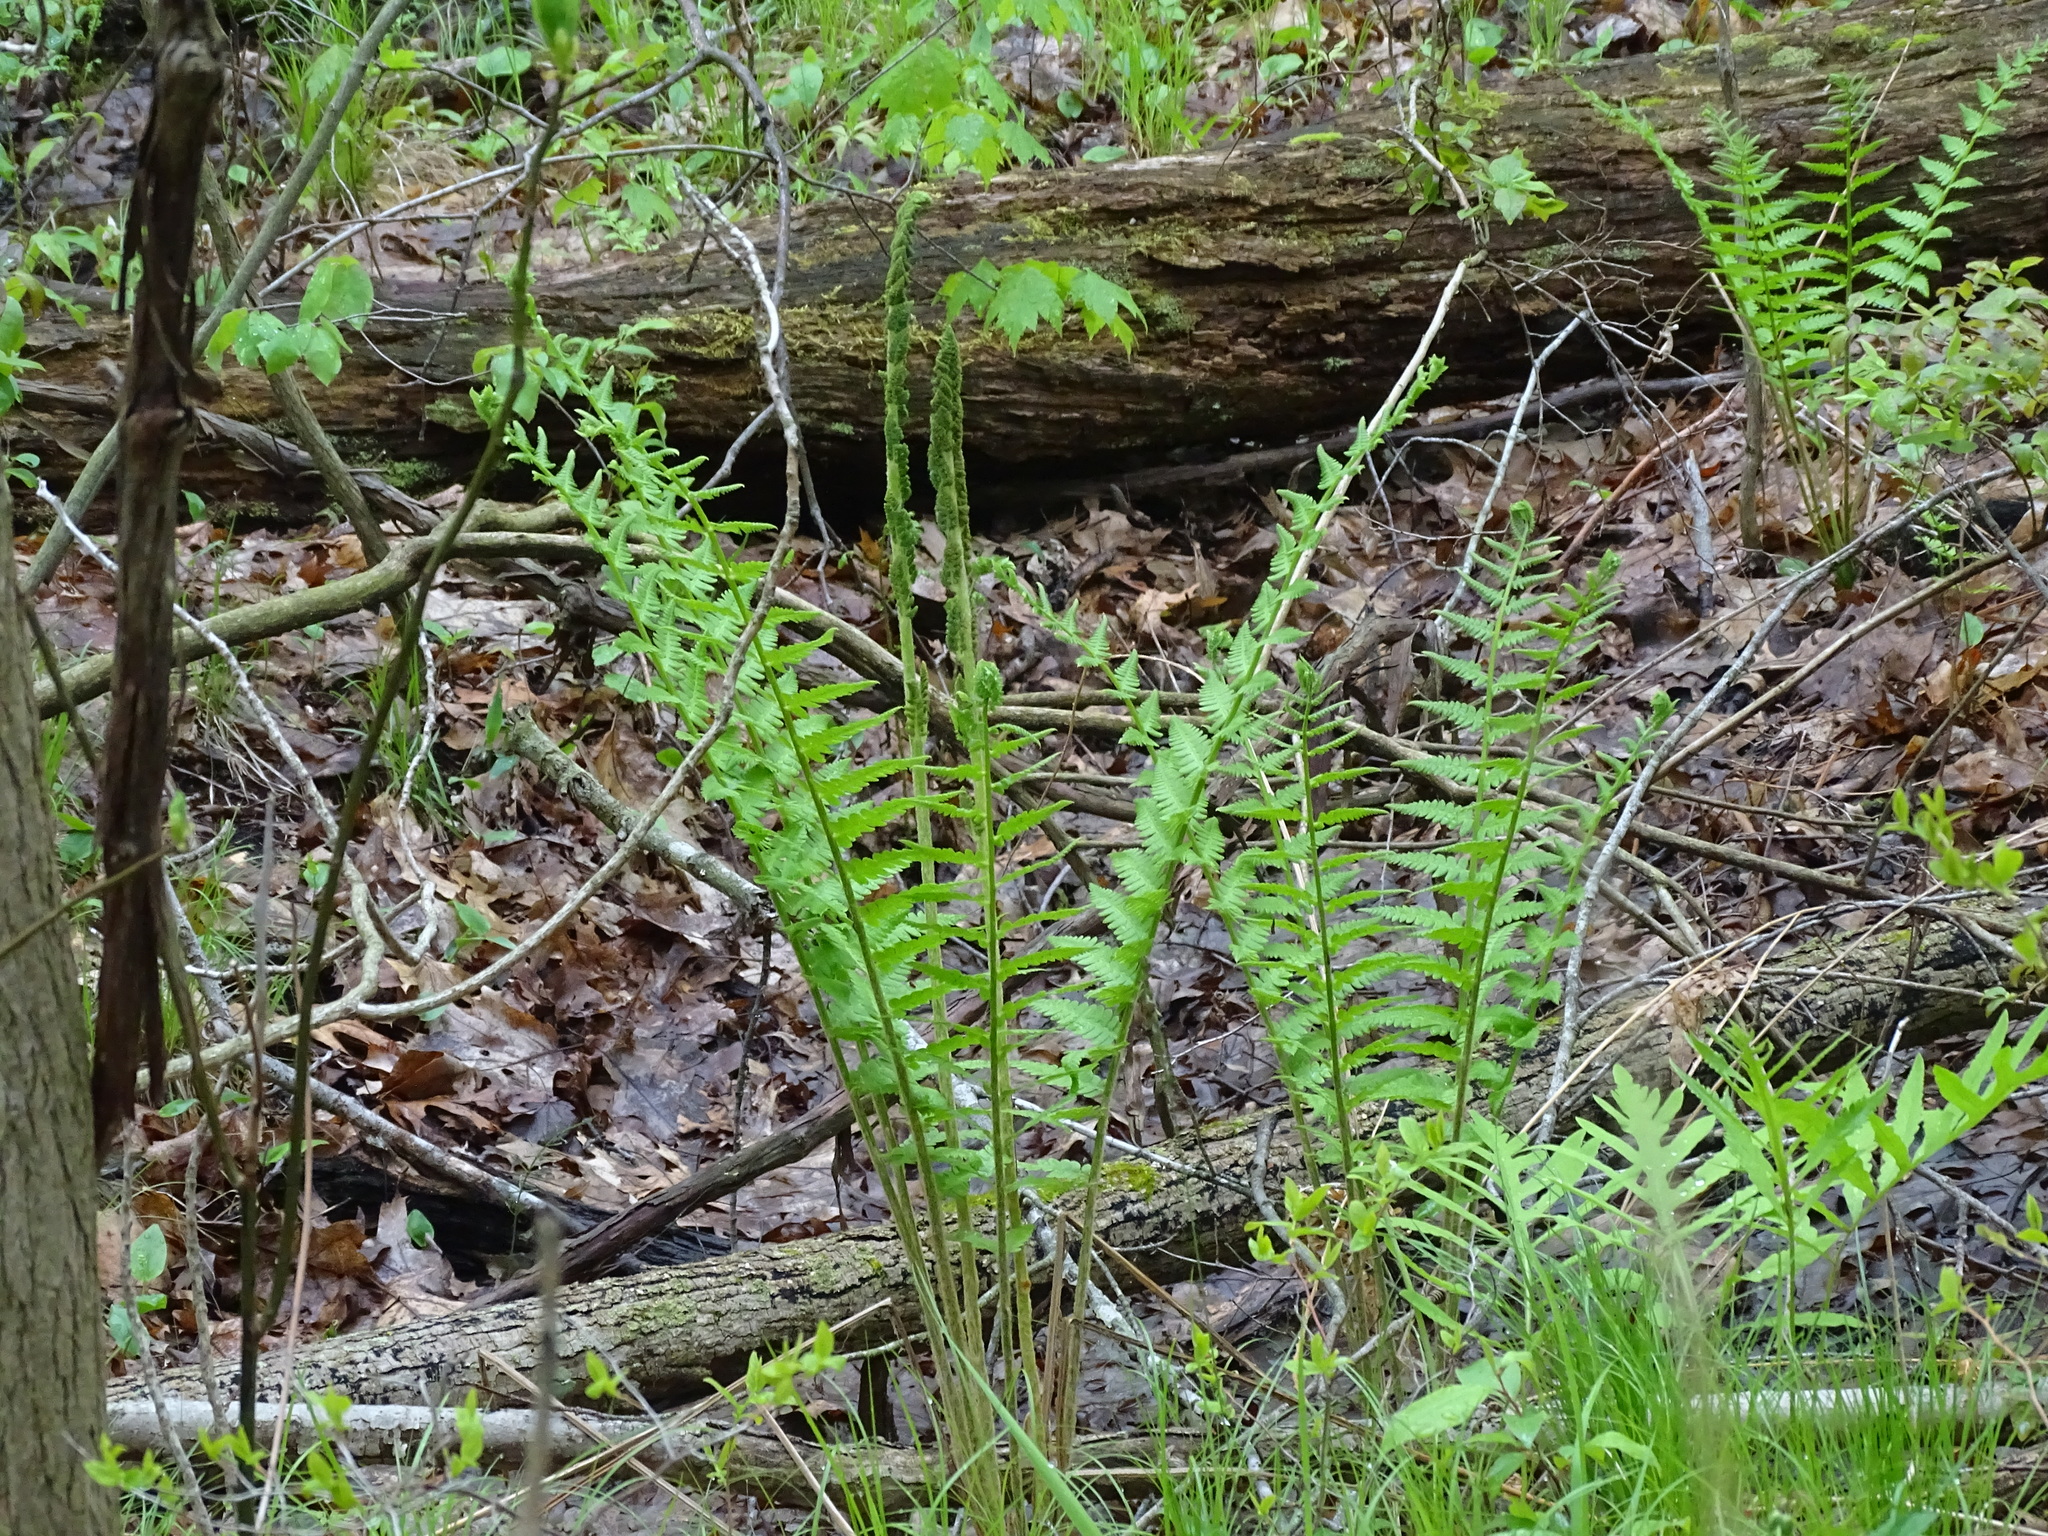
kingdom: Plantae
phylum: Tracheophyta
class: Polypodiopsida
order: Osmundales
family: Osmundaceae
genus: Osmundastrum
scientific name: Osmundastrum cinnamomeum
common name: Cinnamon fern
